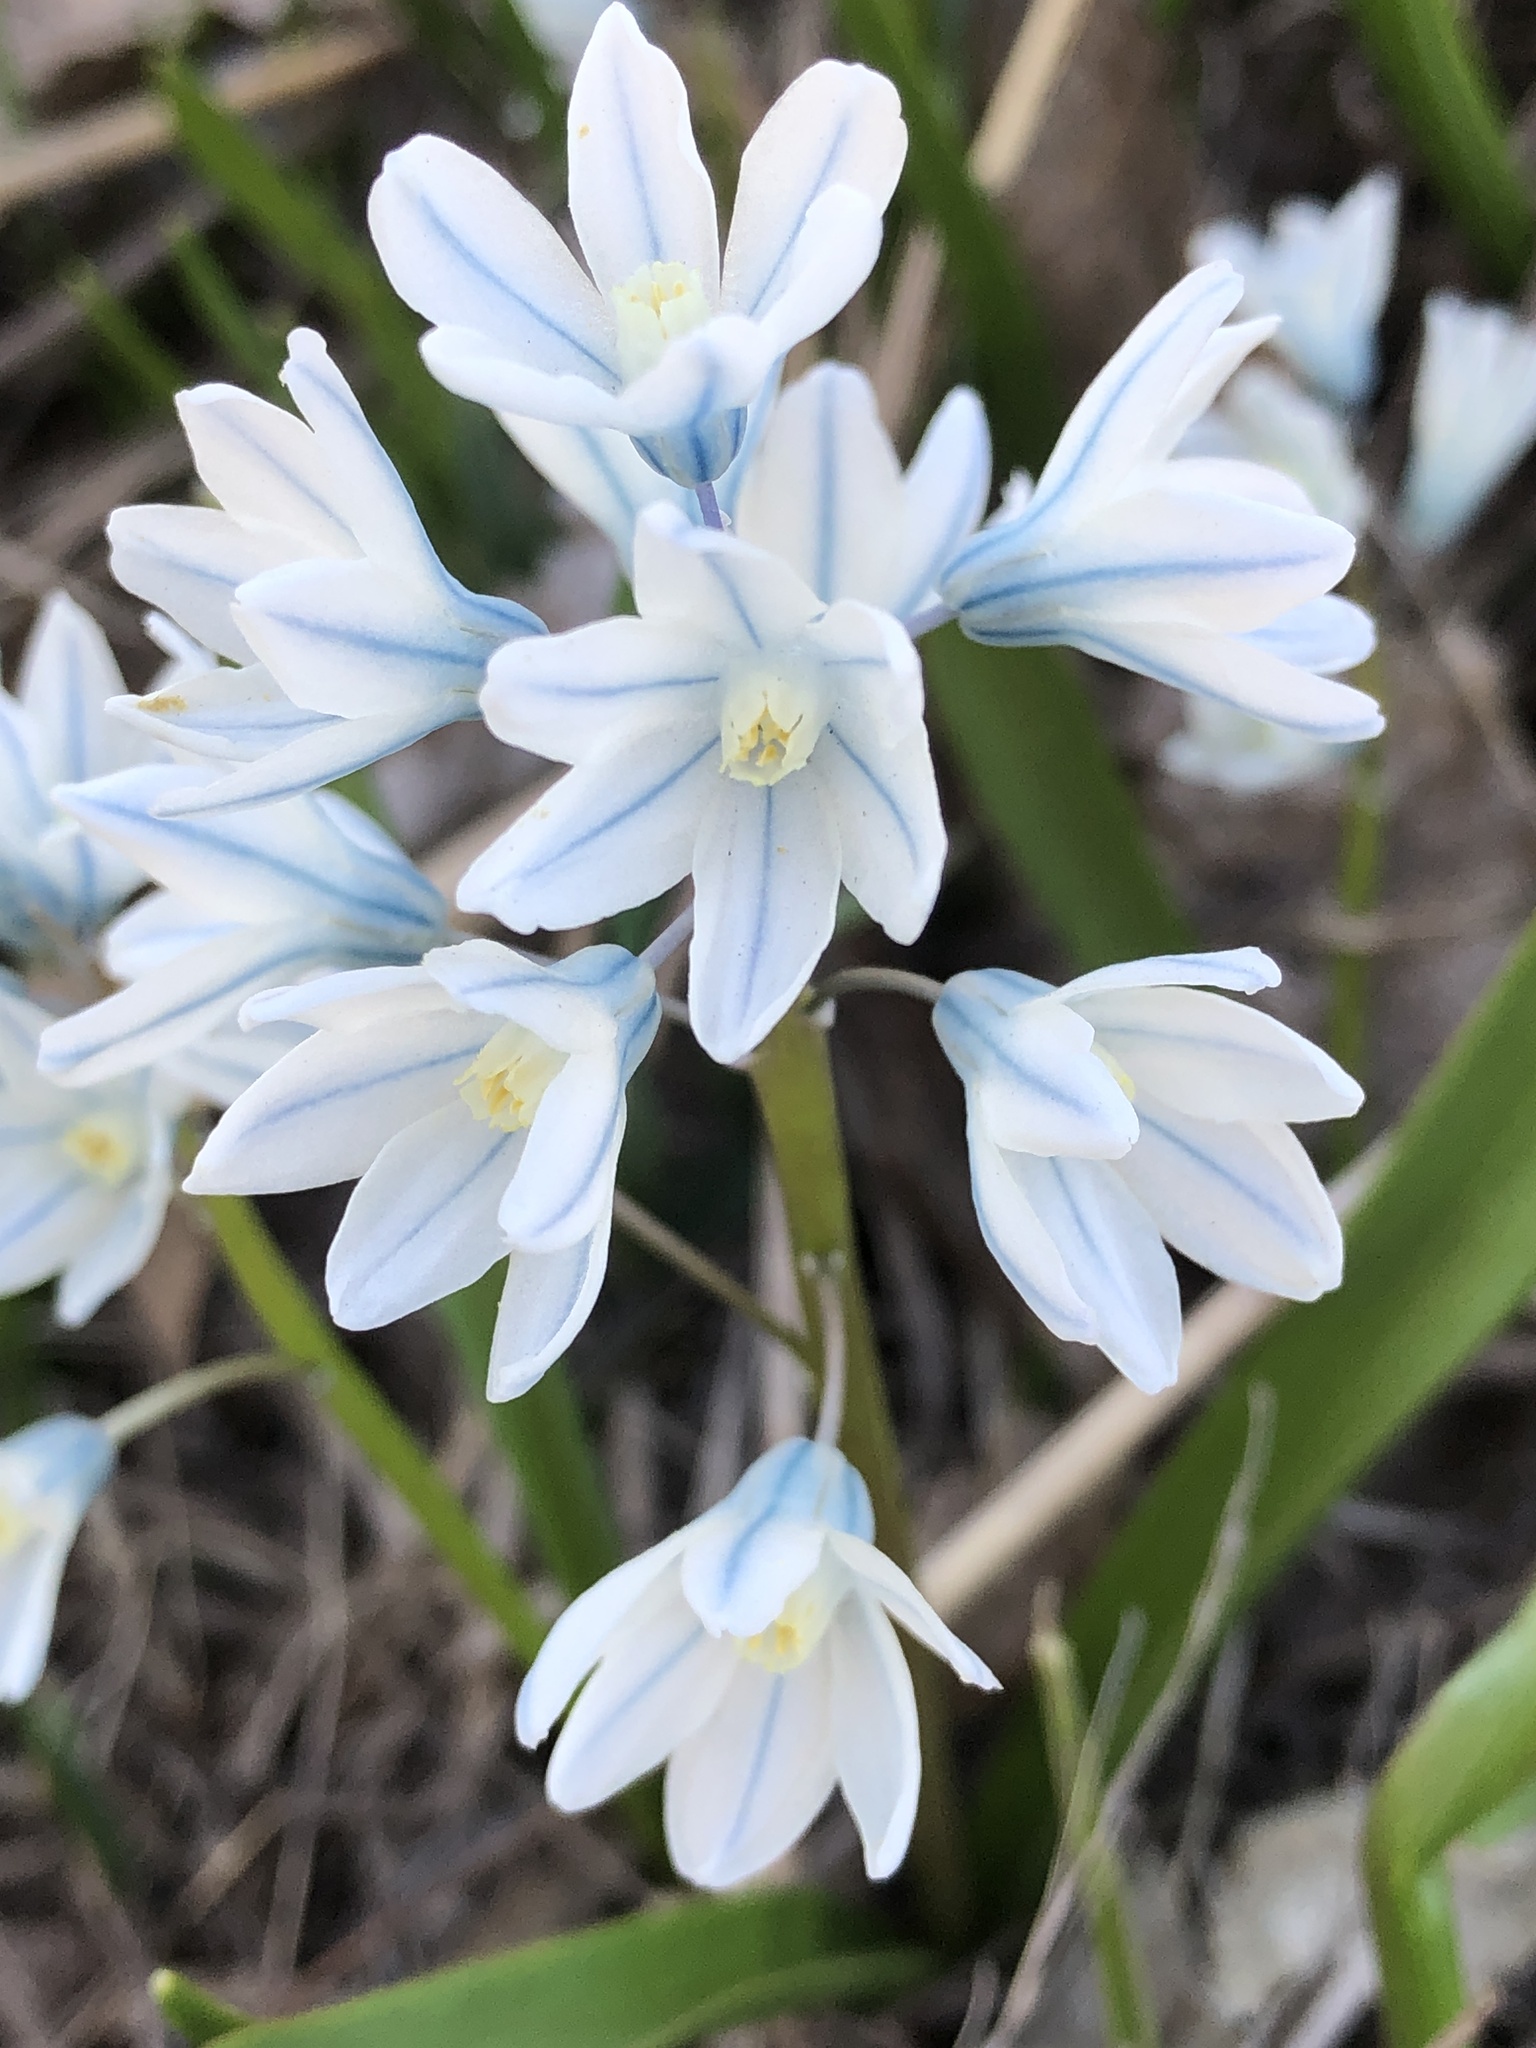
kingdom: Plantae
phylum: Tracheophyta
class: Liliopsida
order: Asparagales
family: Asparagaceae
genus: Puschkinia
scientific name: Puschkinia scilloides
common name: Striped squill
